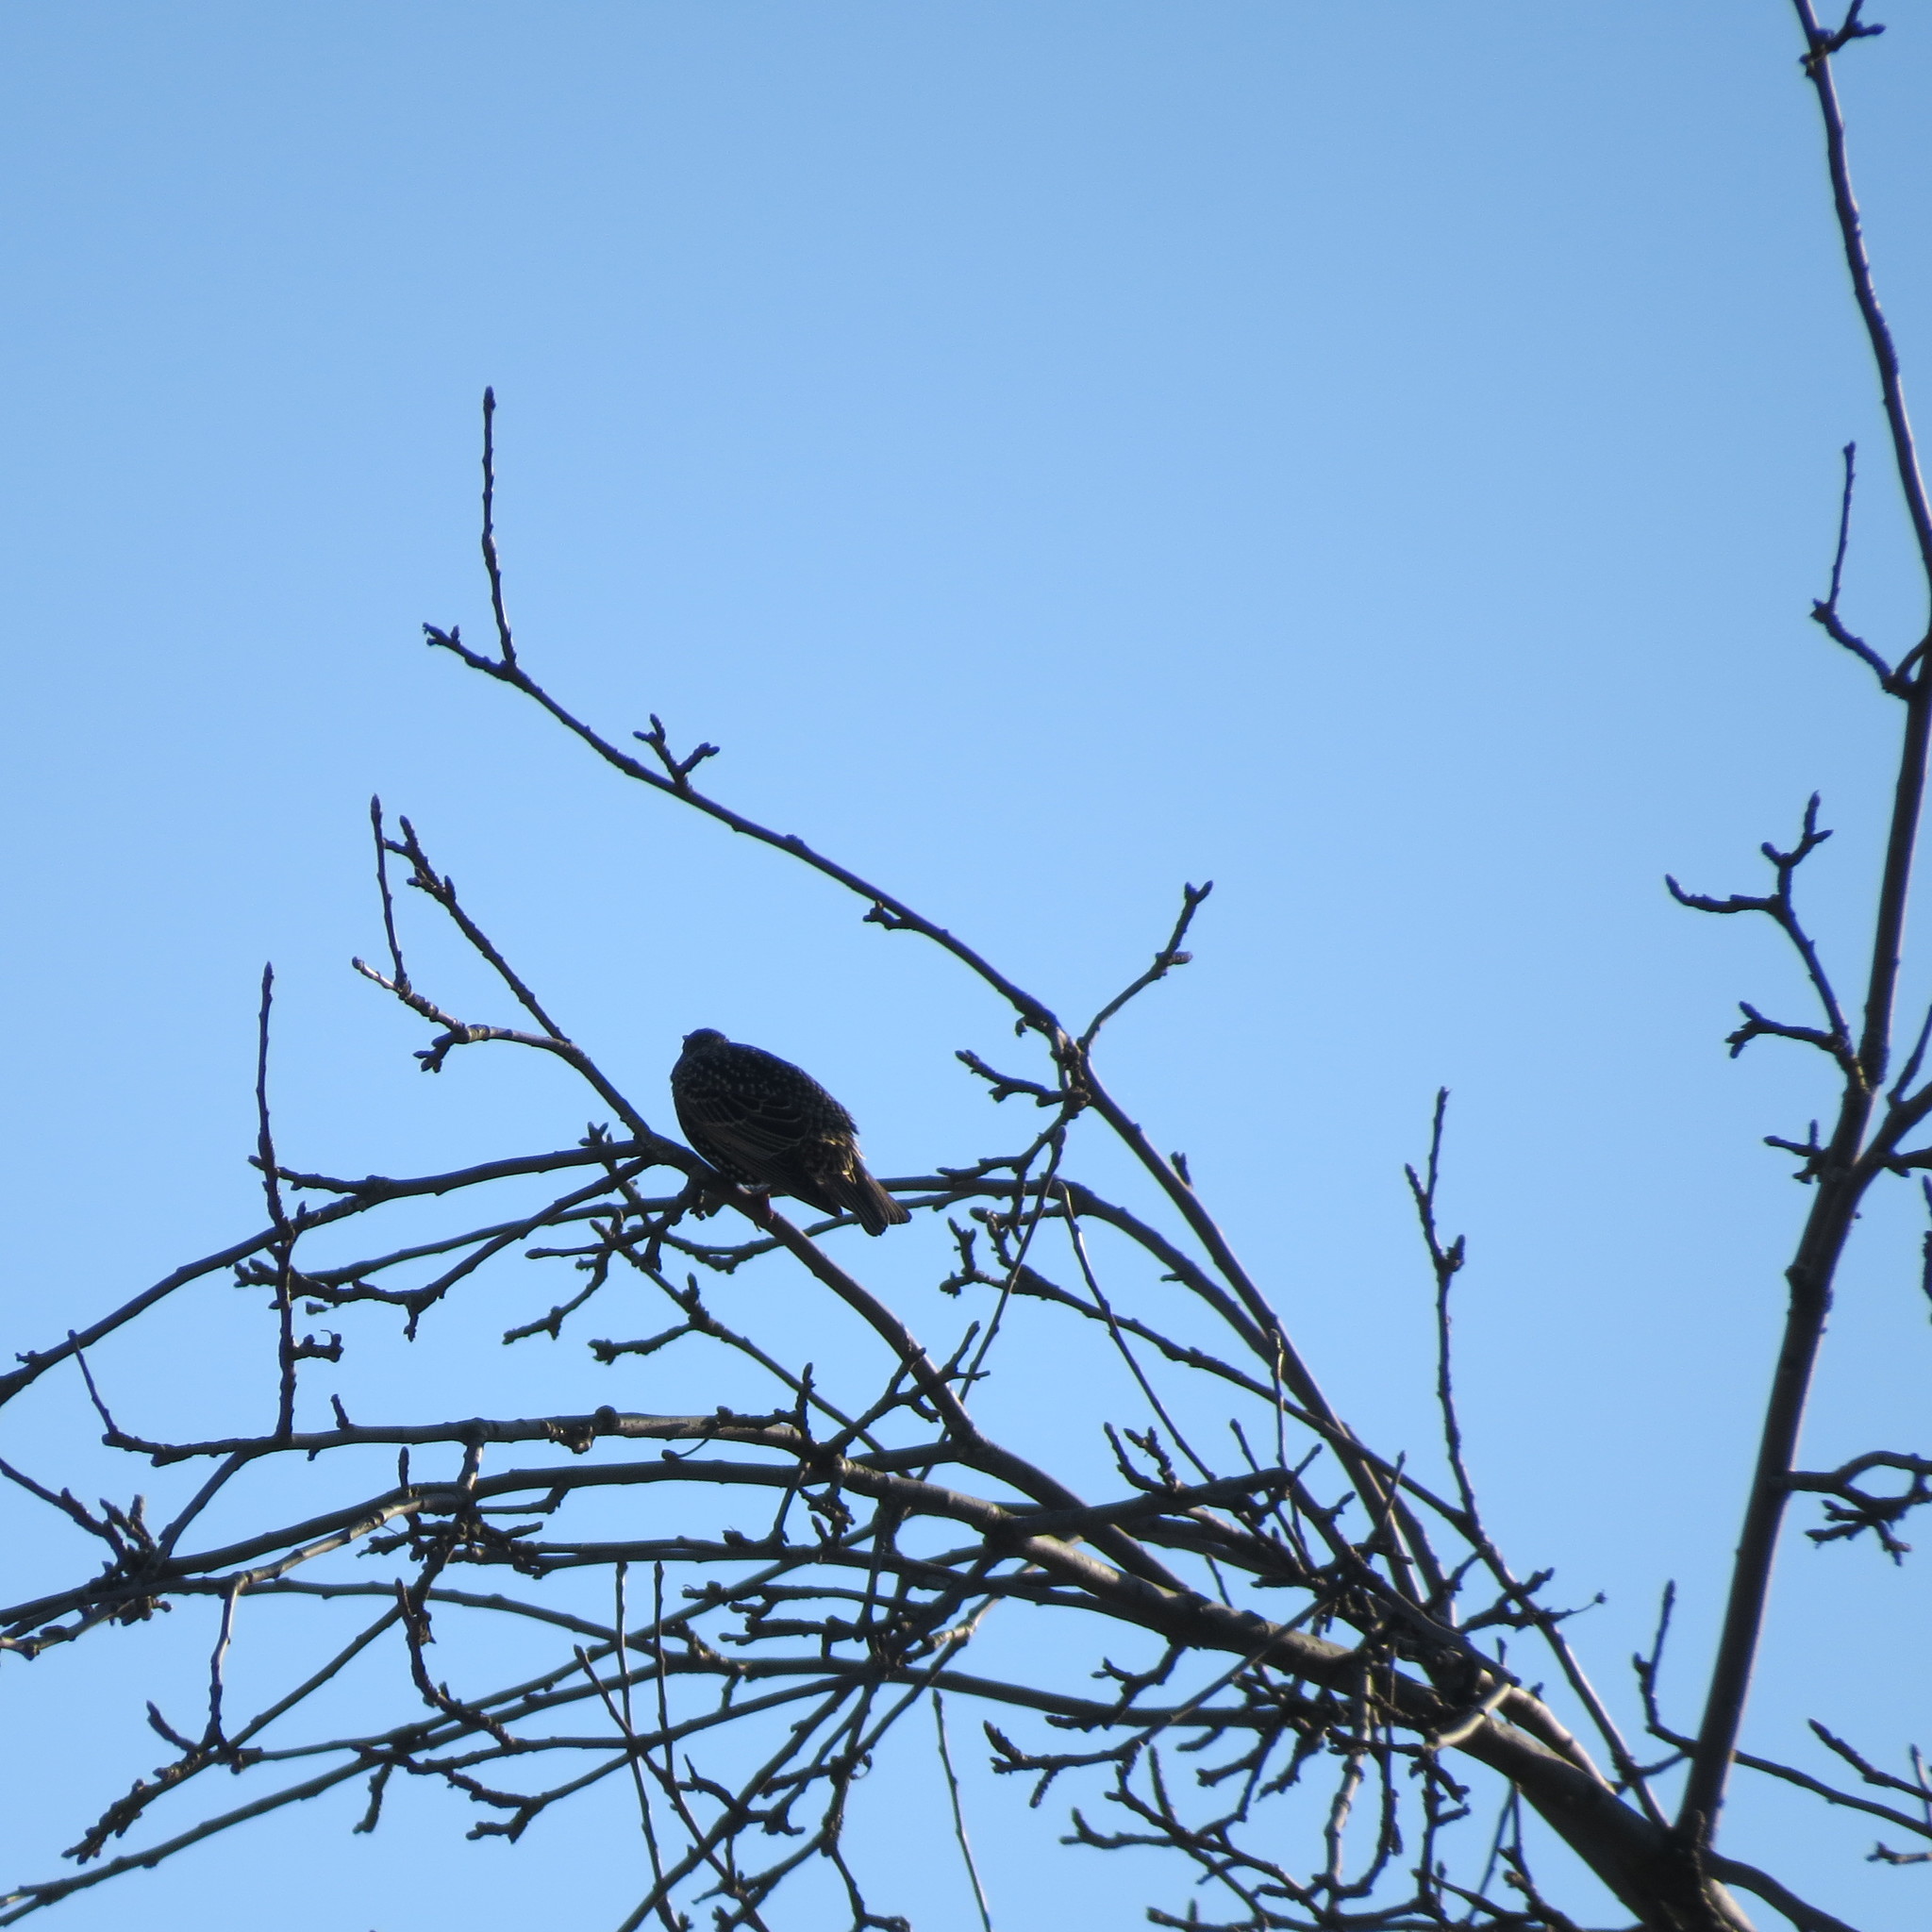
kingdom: Animalia
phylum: Chordata
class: Aves
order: Passeriformes
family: Sturnidae
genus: Sturnus
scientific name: Sturnus vulgaris
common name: Common starling
